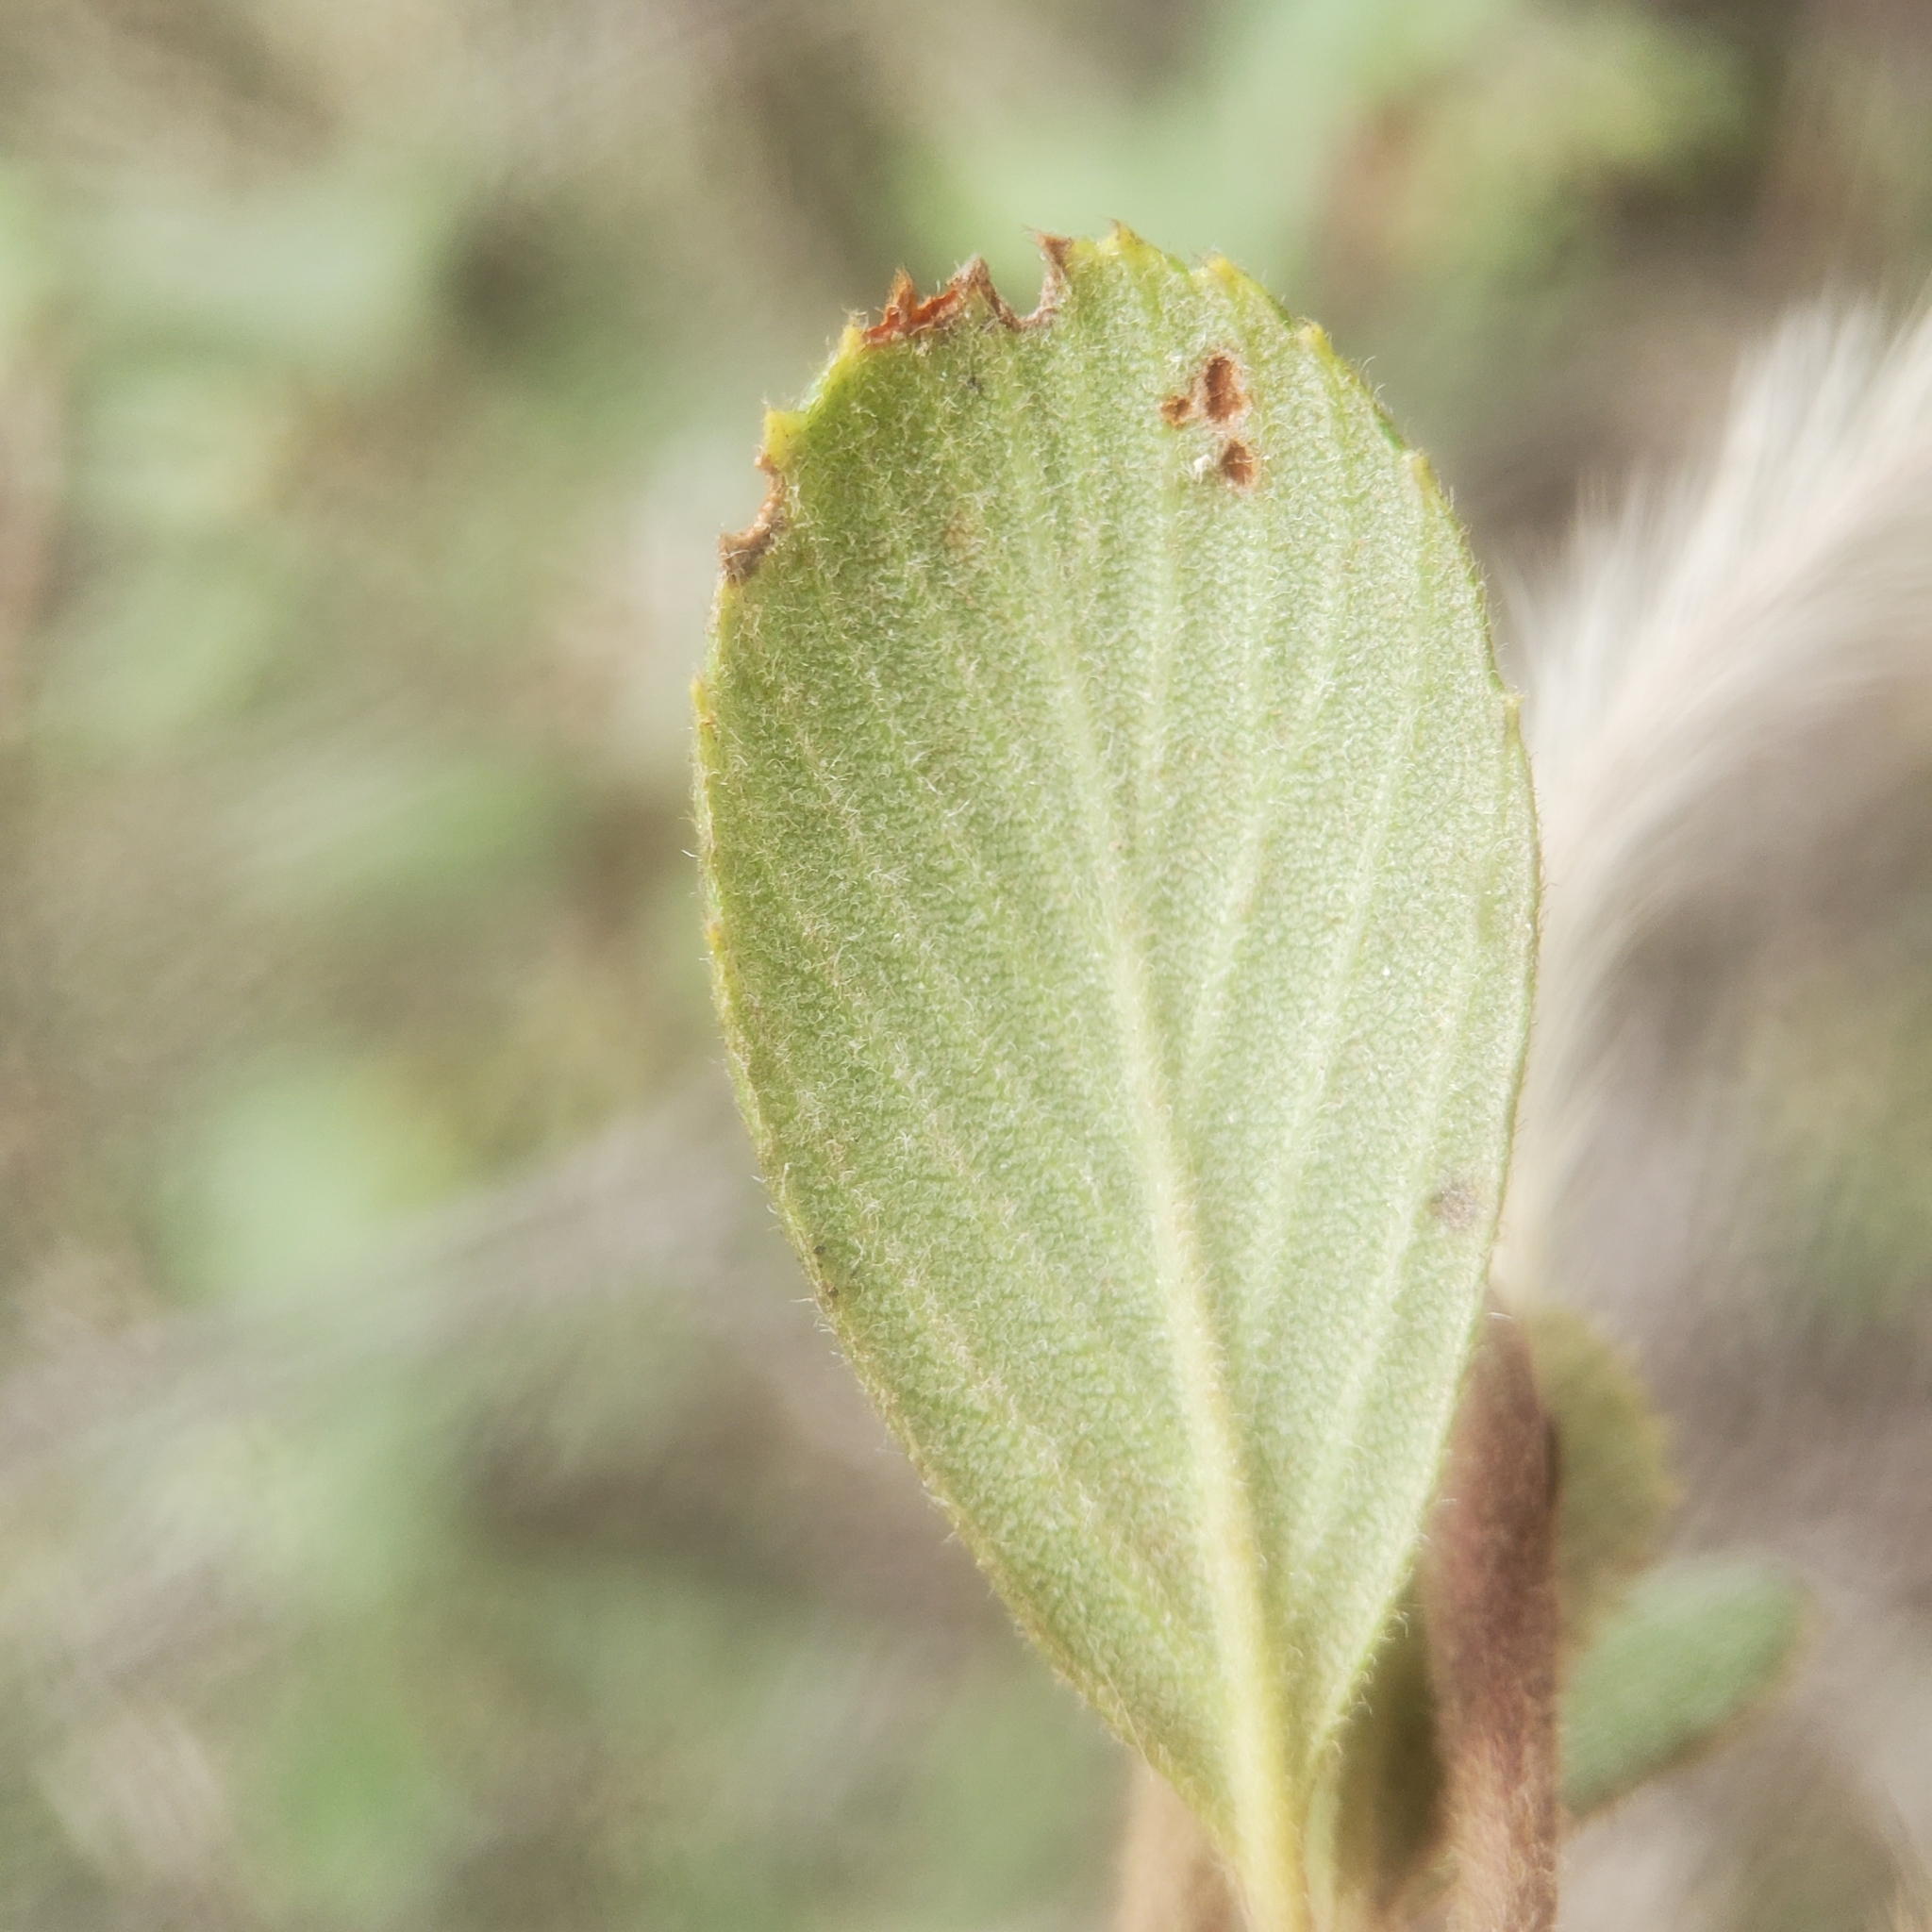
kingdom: Plantae
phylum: Tracheophyta
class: Magnoliopsida
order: Rosales
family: Rosaceae
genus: Cercocarpus
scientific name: Cercocarpus betuloides
